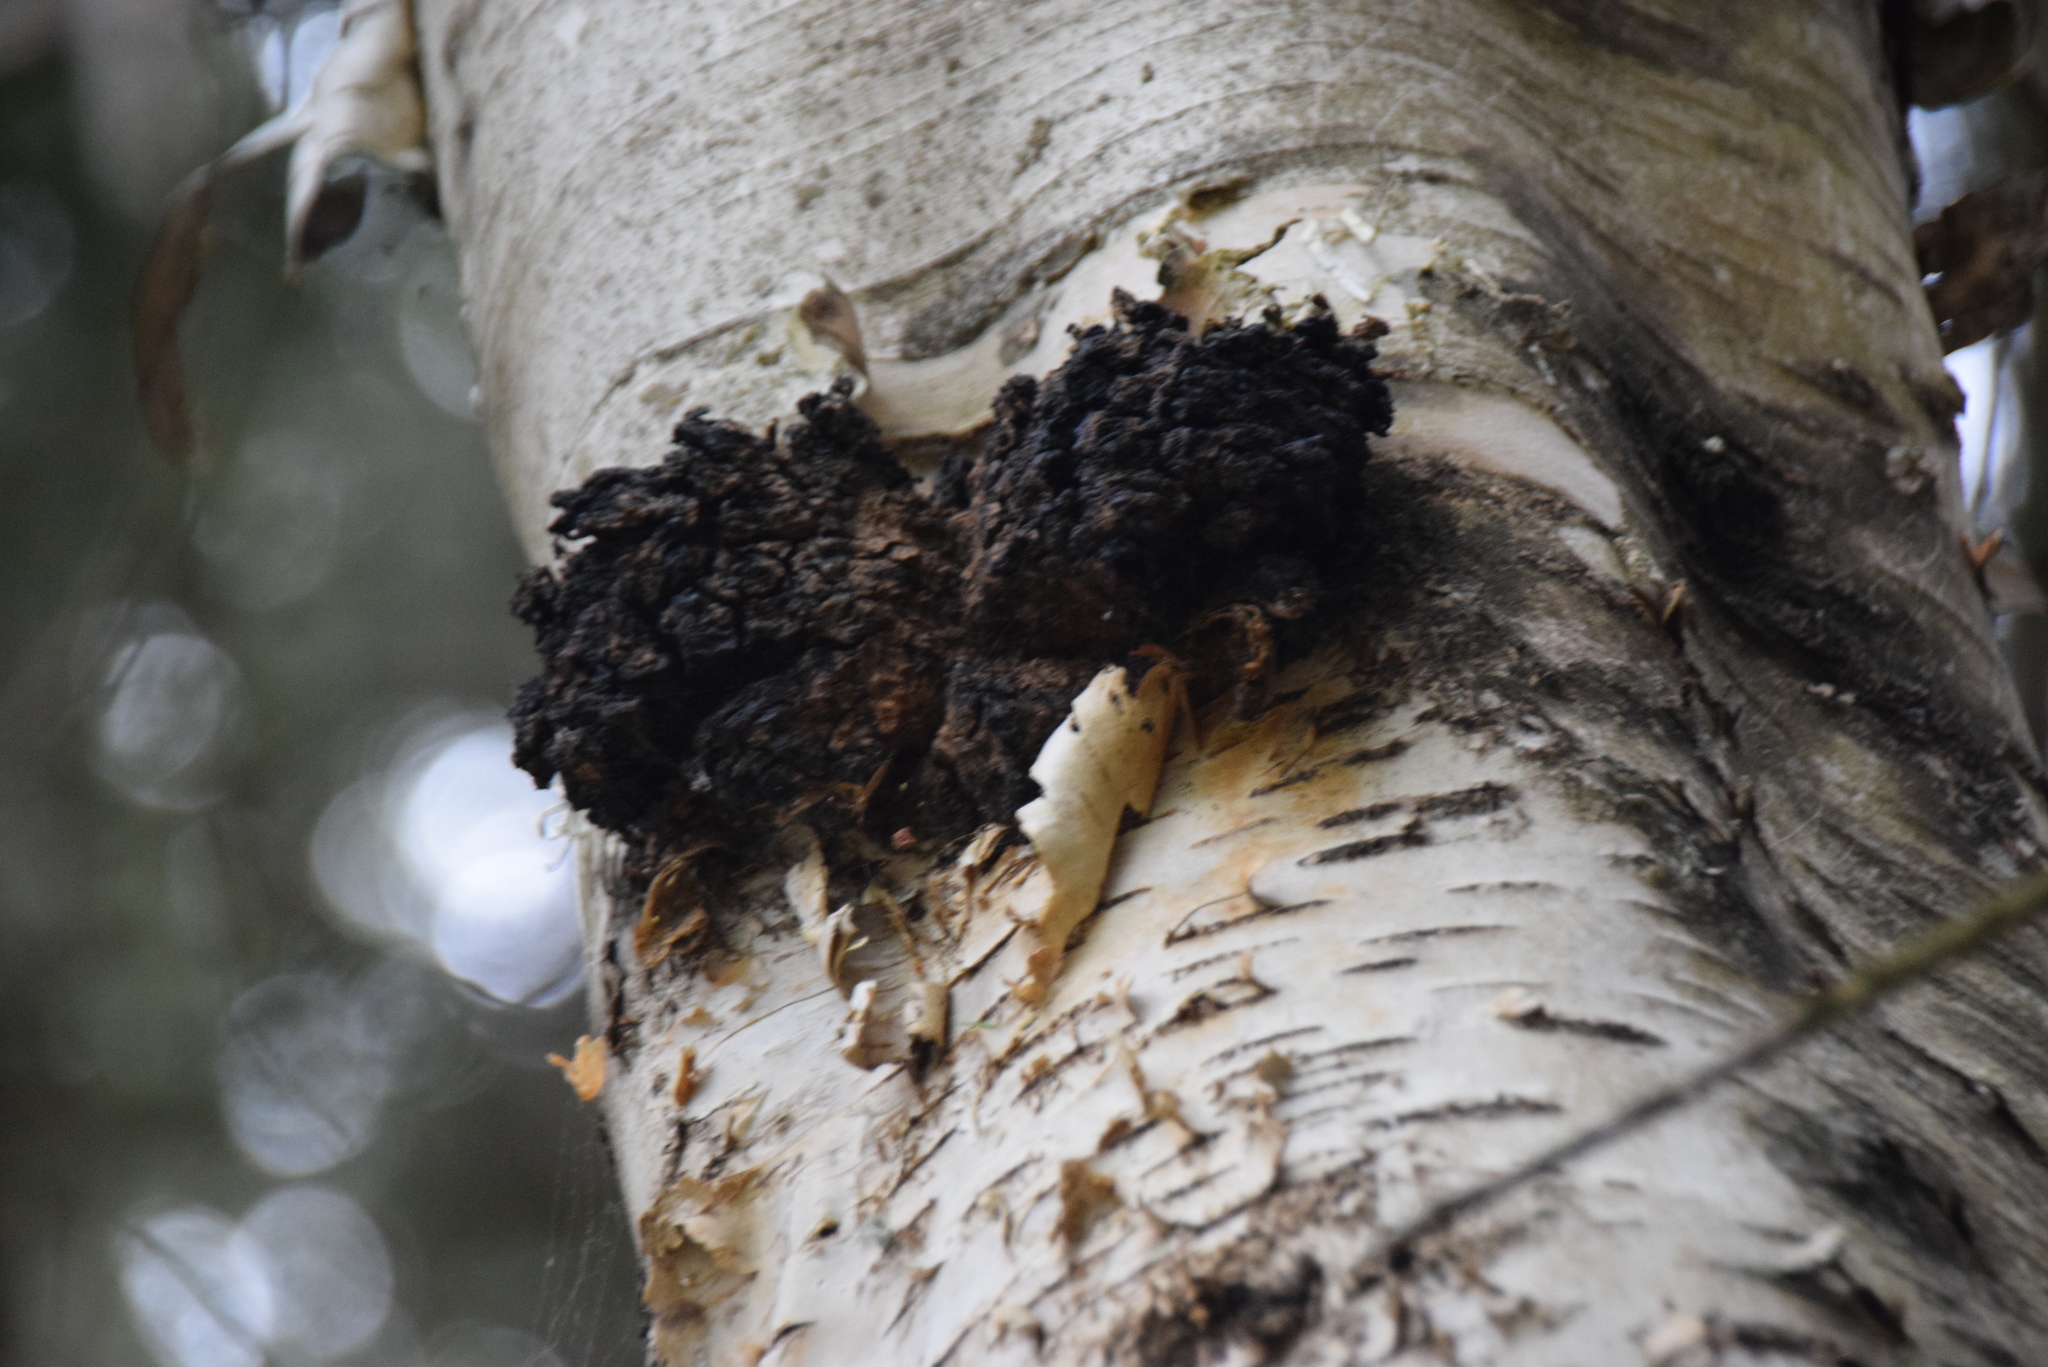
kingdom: Fungi
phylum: Basidiomycota
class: Agaricomycetes
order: Hymenochaetales
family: Hymenochaetaceae
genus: Inonotus
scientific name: Inonotus obliquus
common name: Chaga
